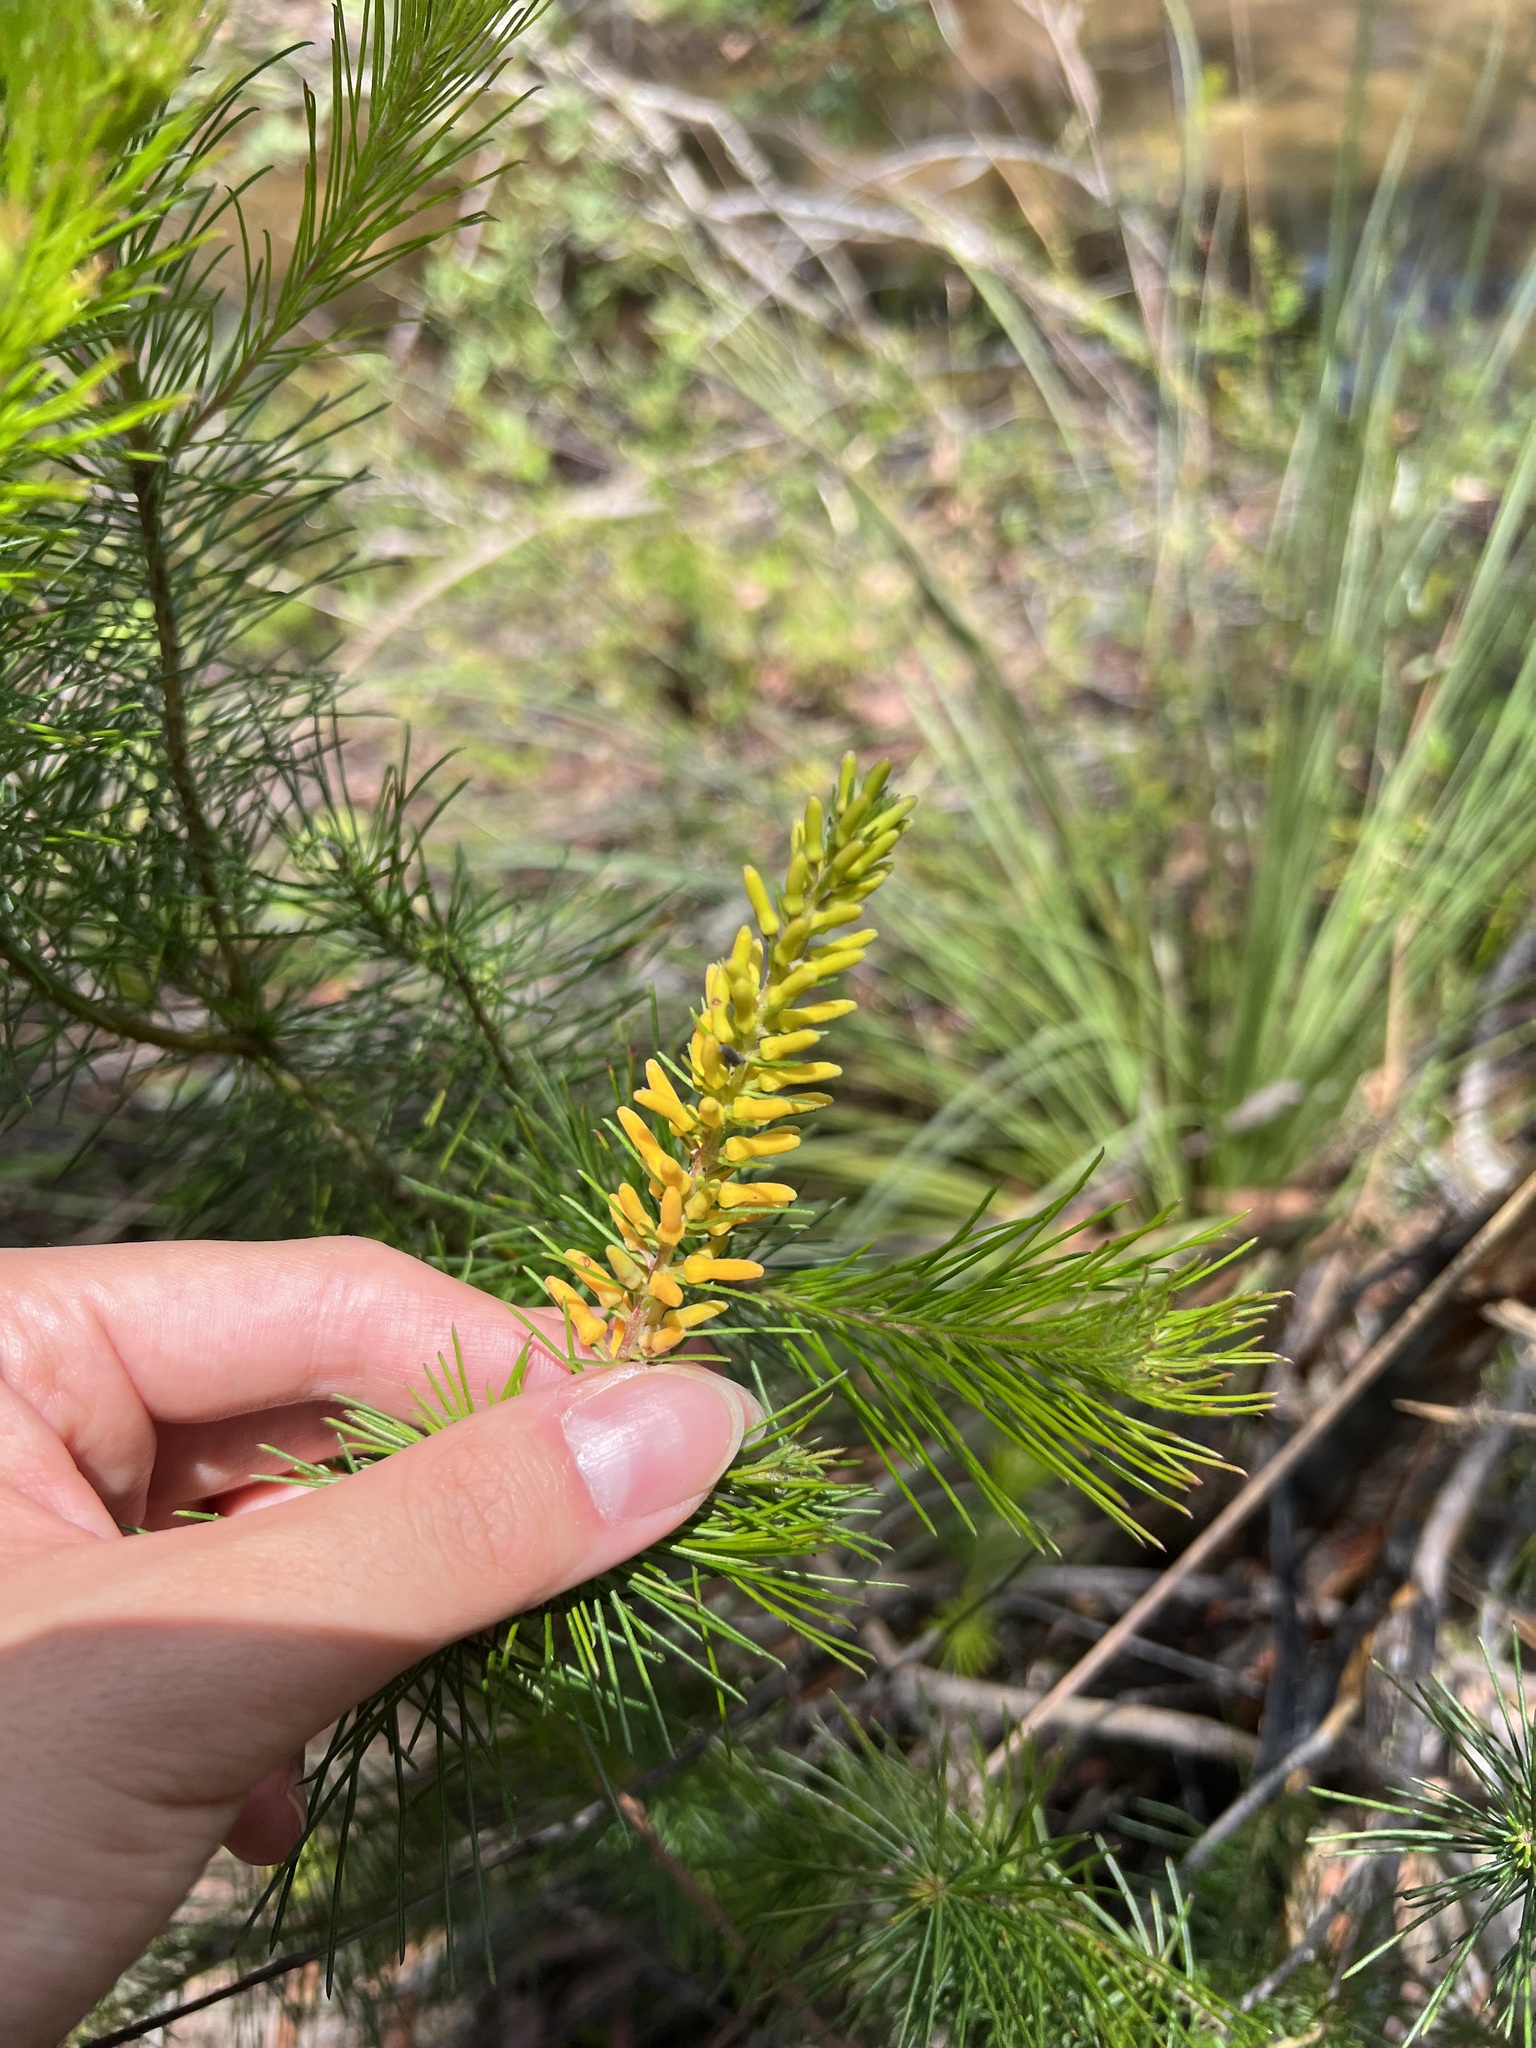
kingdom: Plantae
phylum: Tracheophyta
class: Magnoliopsida
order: Proteales
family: Proteaceae
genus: Persoonia
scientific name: Persoonia pinifolia
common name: Pine-leaf geebung
